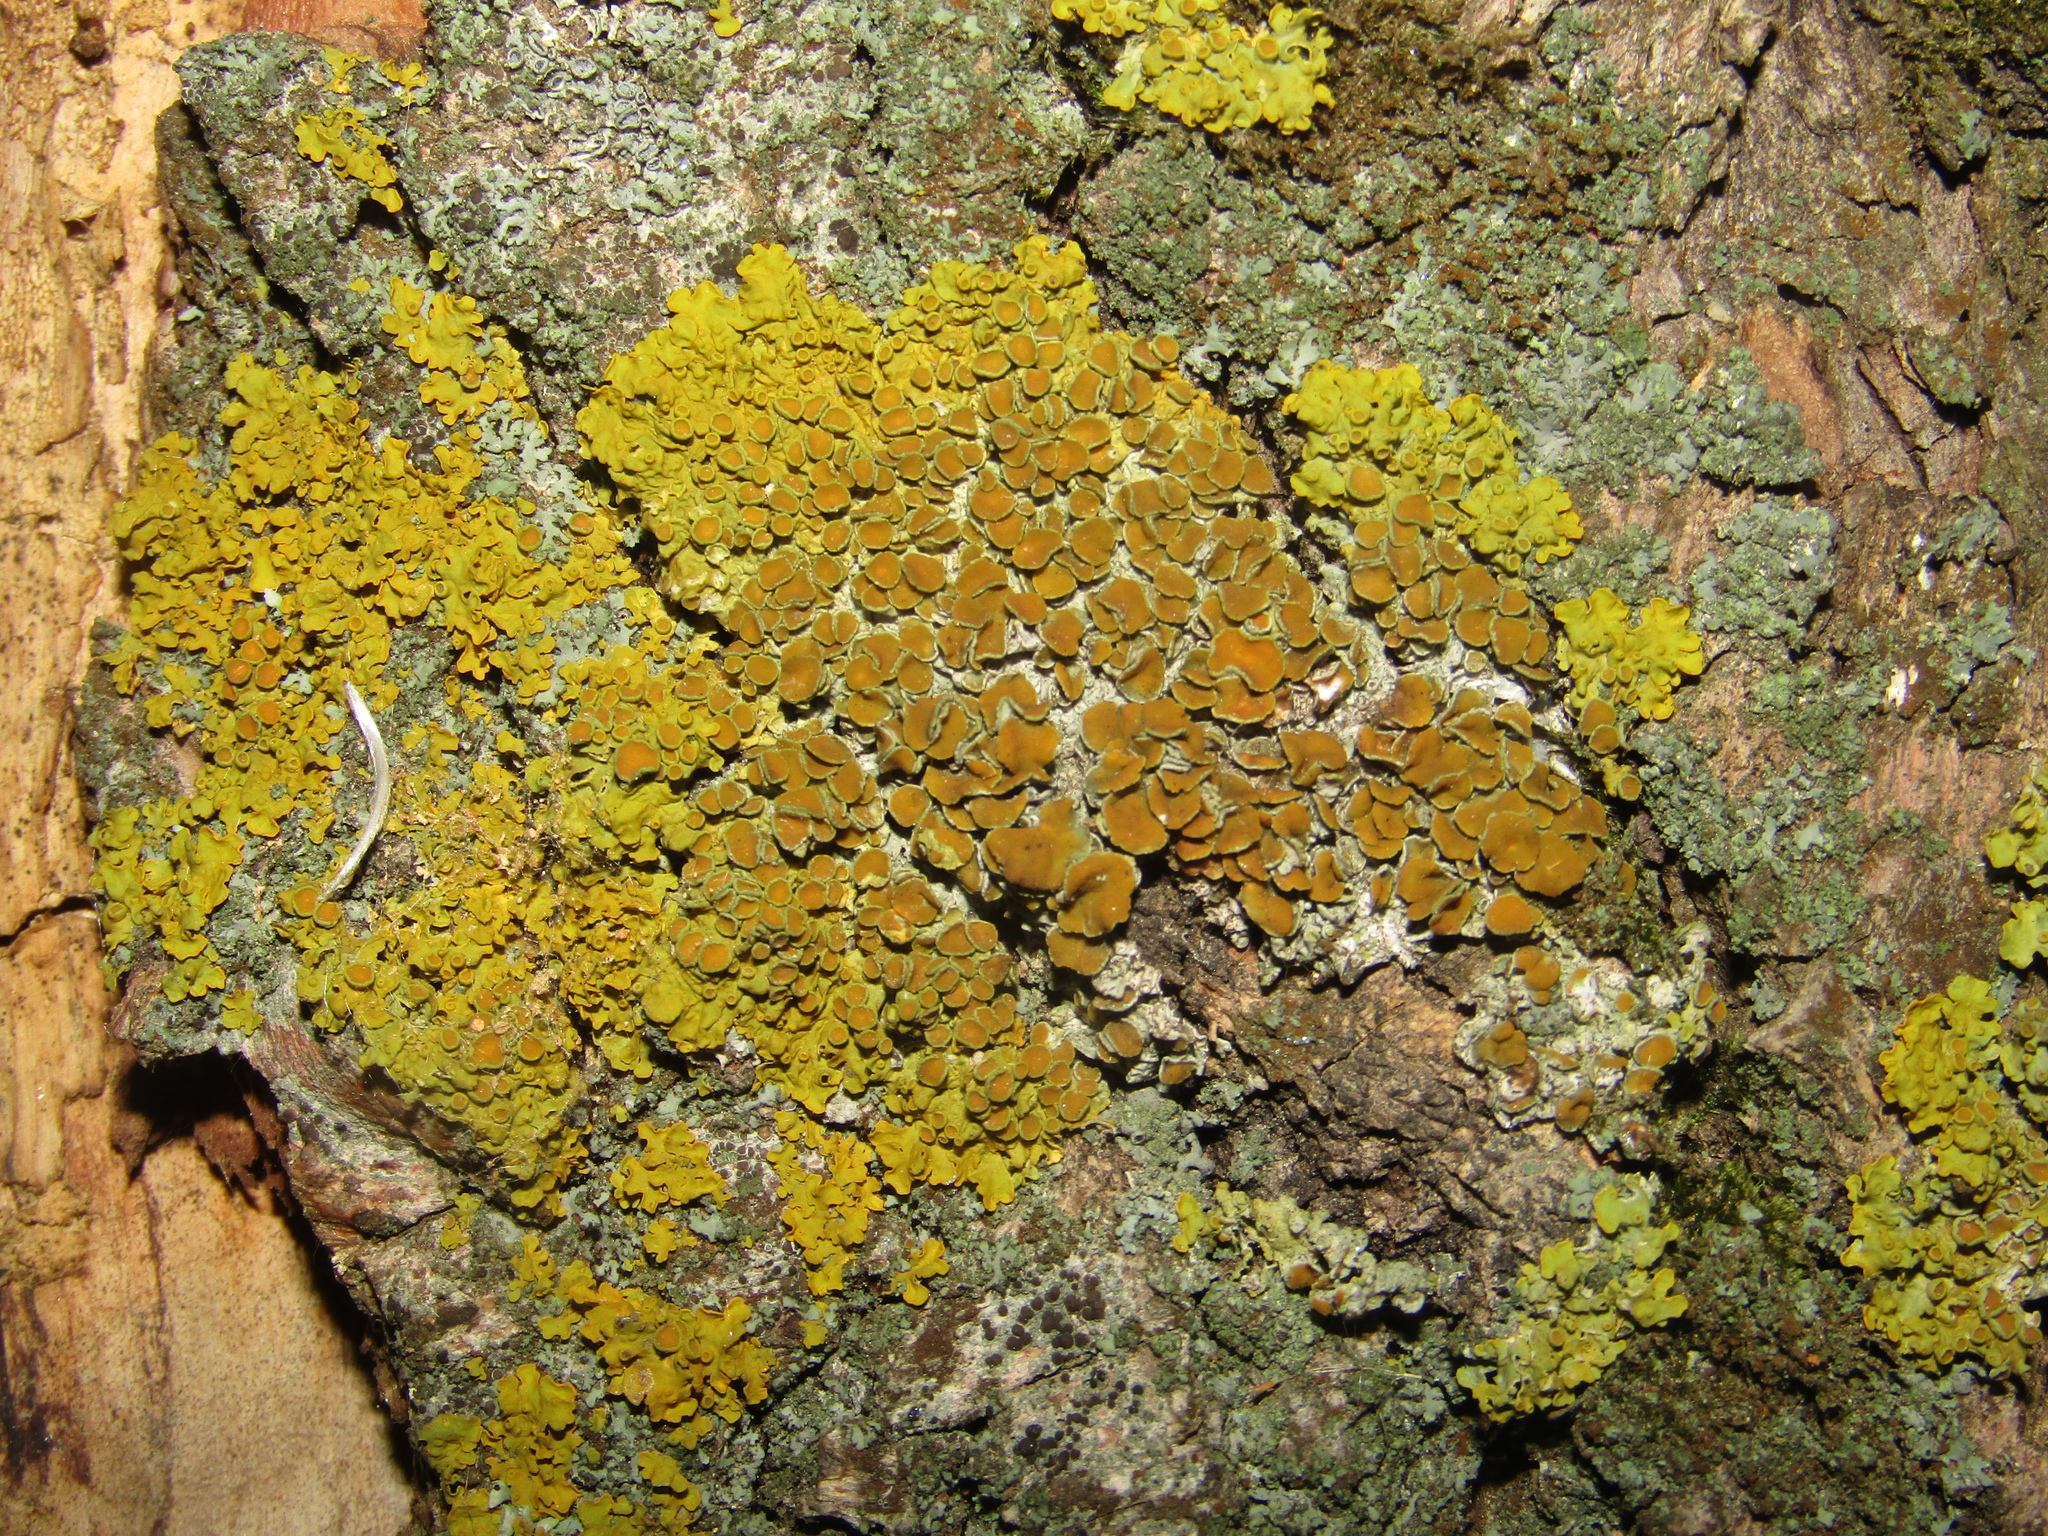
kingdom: Fungi
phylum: Ascomycota
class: Lecanoromycetes
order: Teloschistales
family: Teloschistaceae
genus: Xanthoria
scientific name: Xanthoria parietina
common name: Common orange lichen
